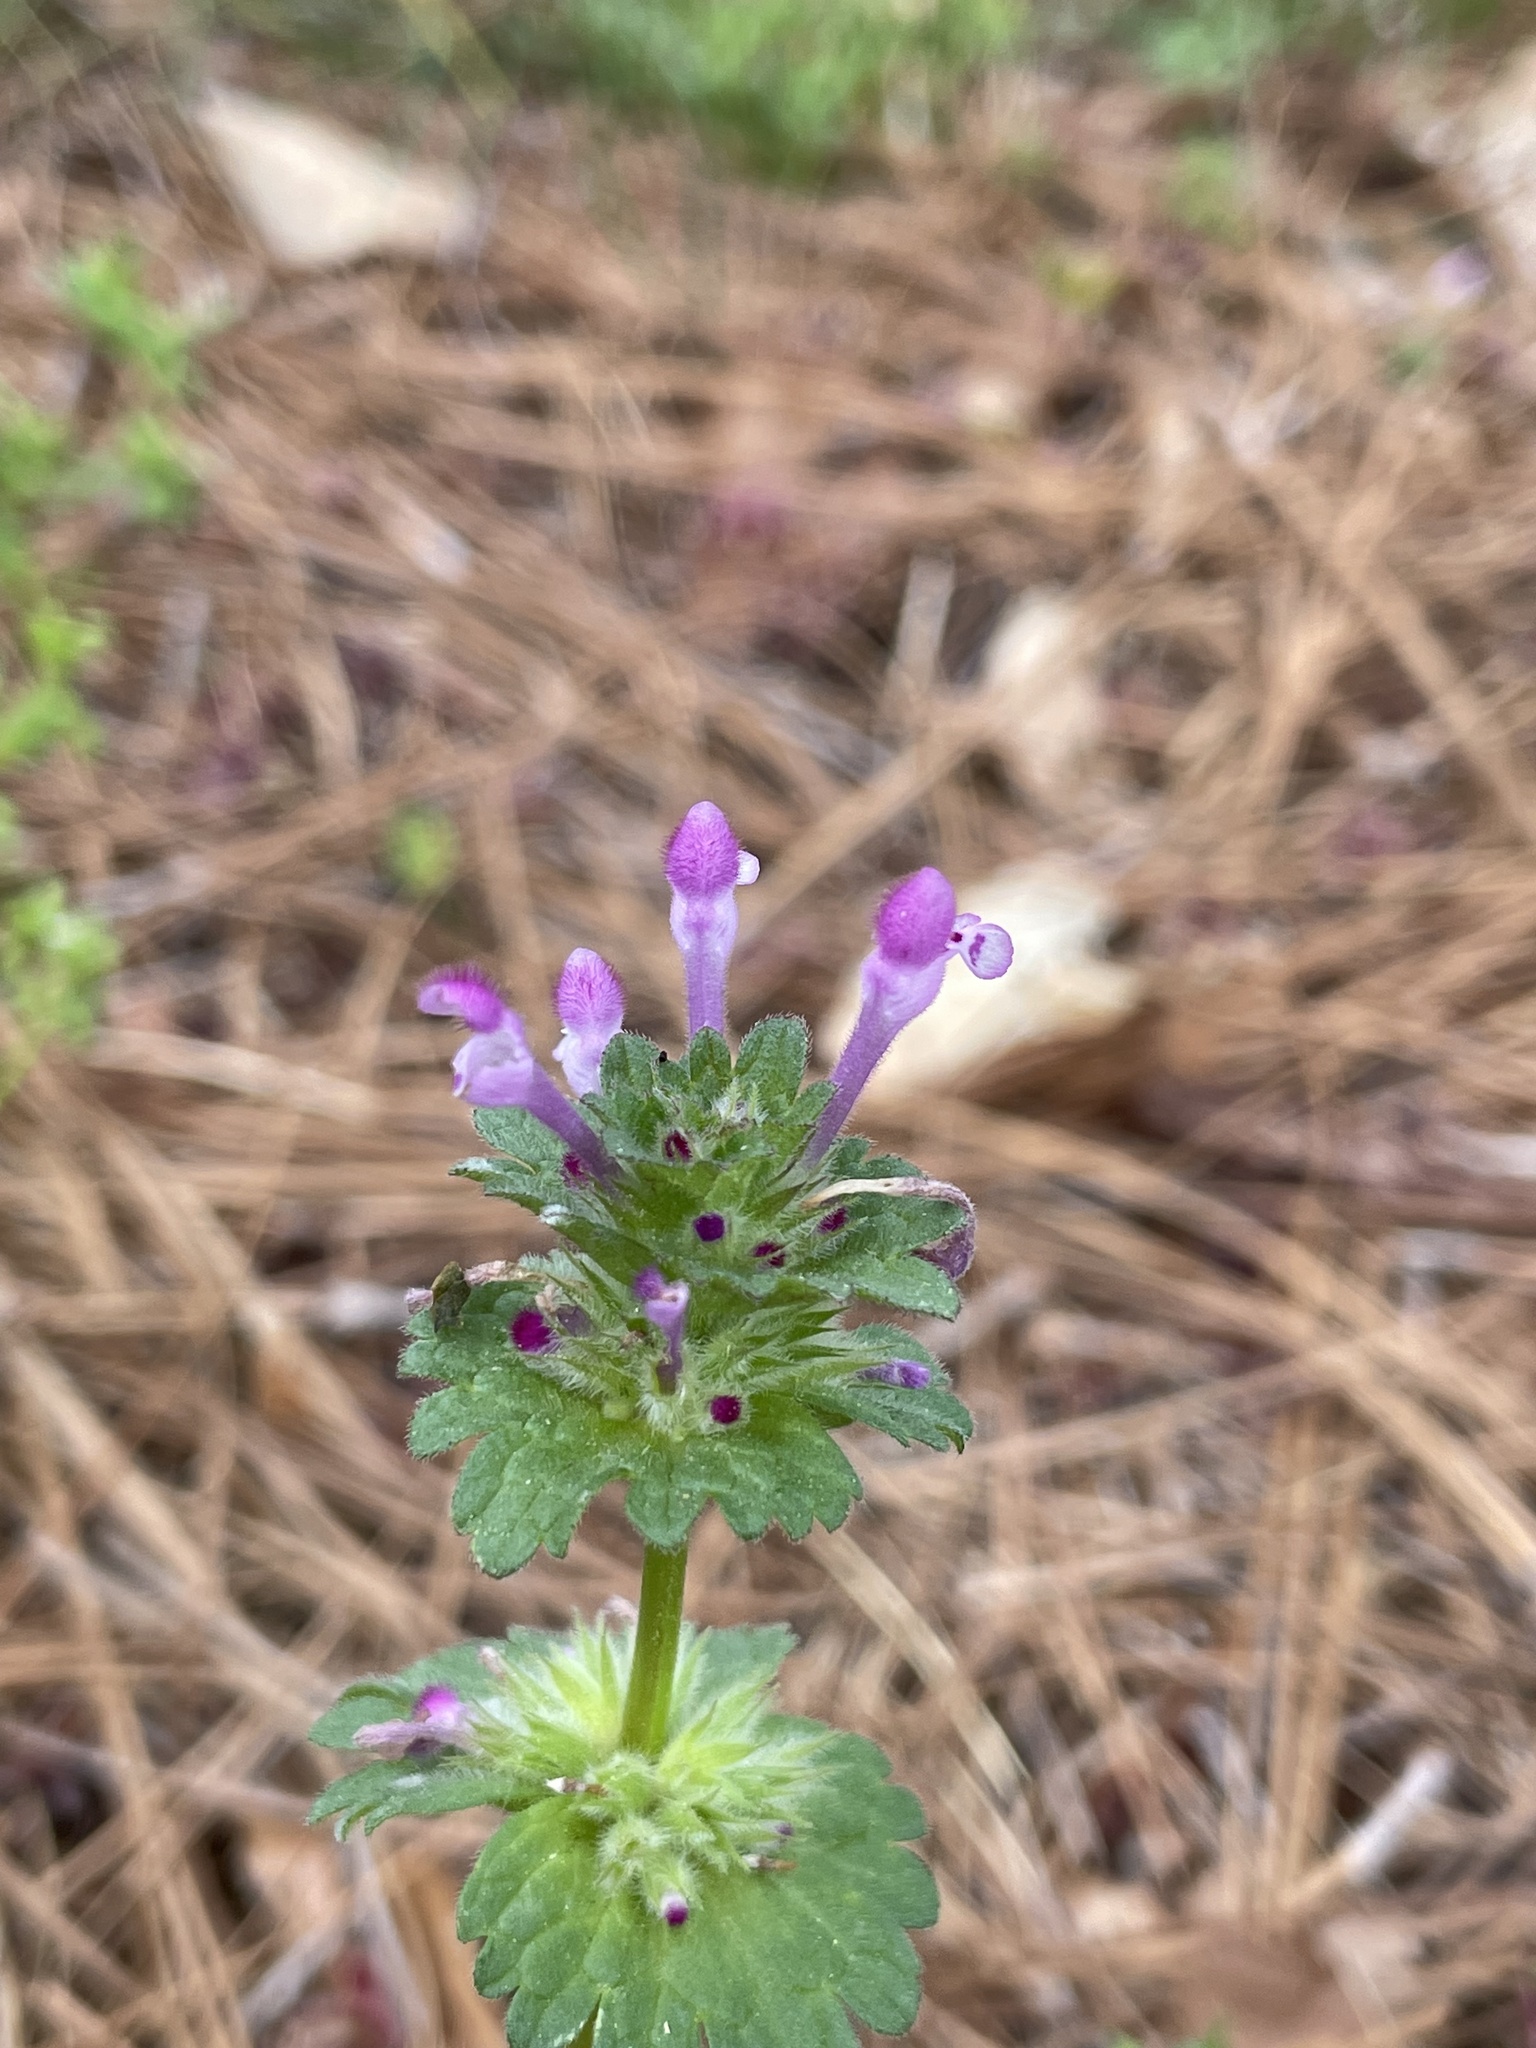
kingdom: Plantae
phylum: Tracheophyta
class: Magnoliopsida
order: Lamiales
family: Lamiaceae
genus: Lamium
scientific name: Lamium amplexicaule
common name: Henbit dead-nettle
